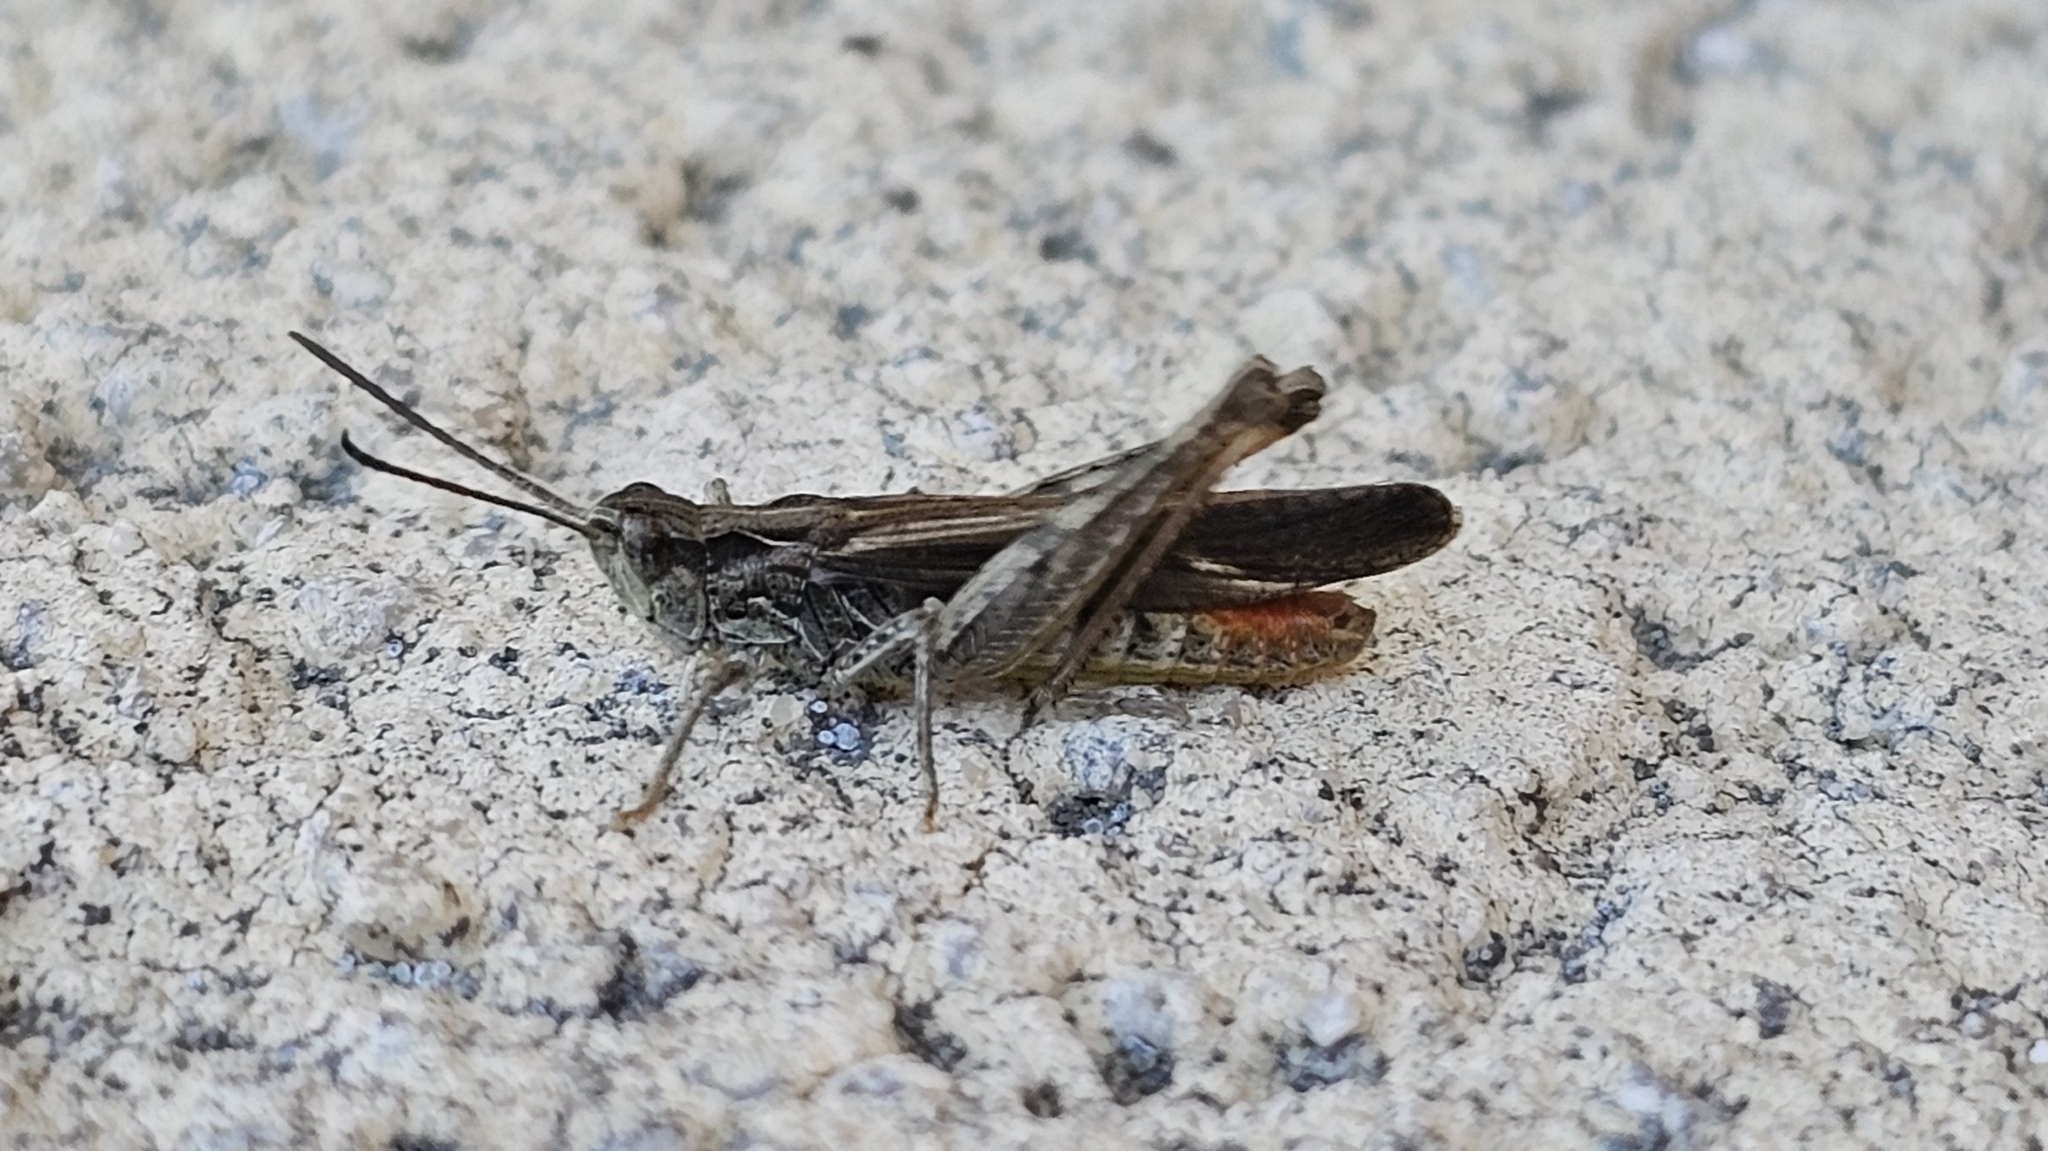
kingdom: Animalia
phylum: Arthropoda
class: Insecta
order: Orthoptera
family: Acrididae
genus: Chorthippus
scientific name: Chorthippus brunneus
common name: Field grasshopper
